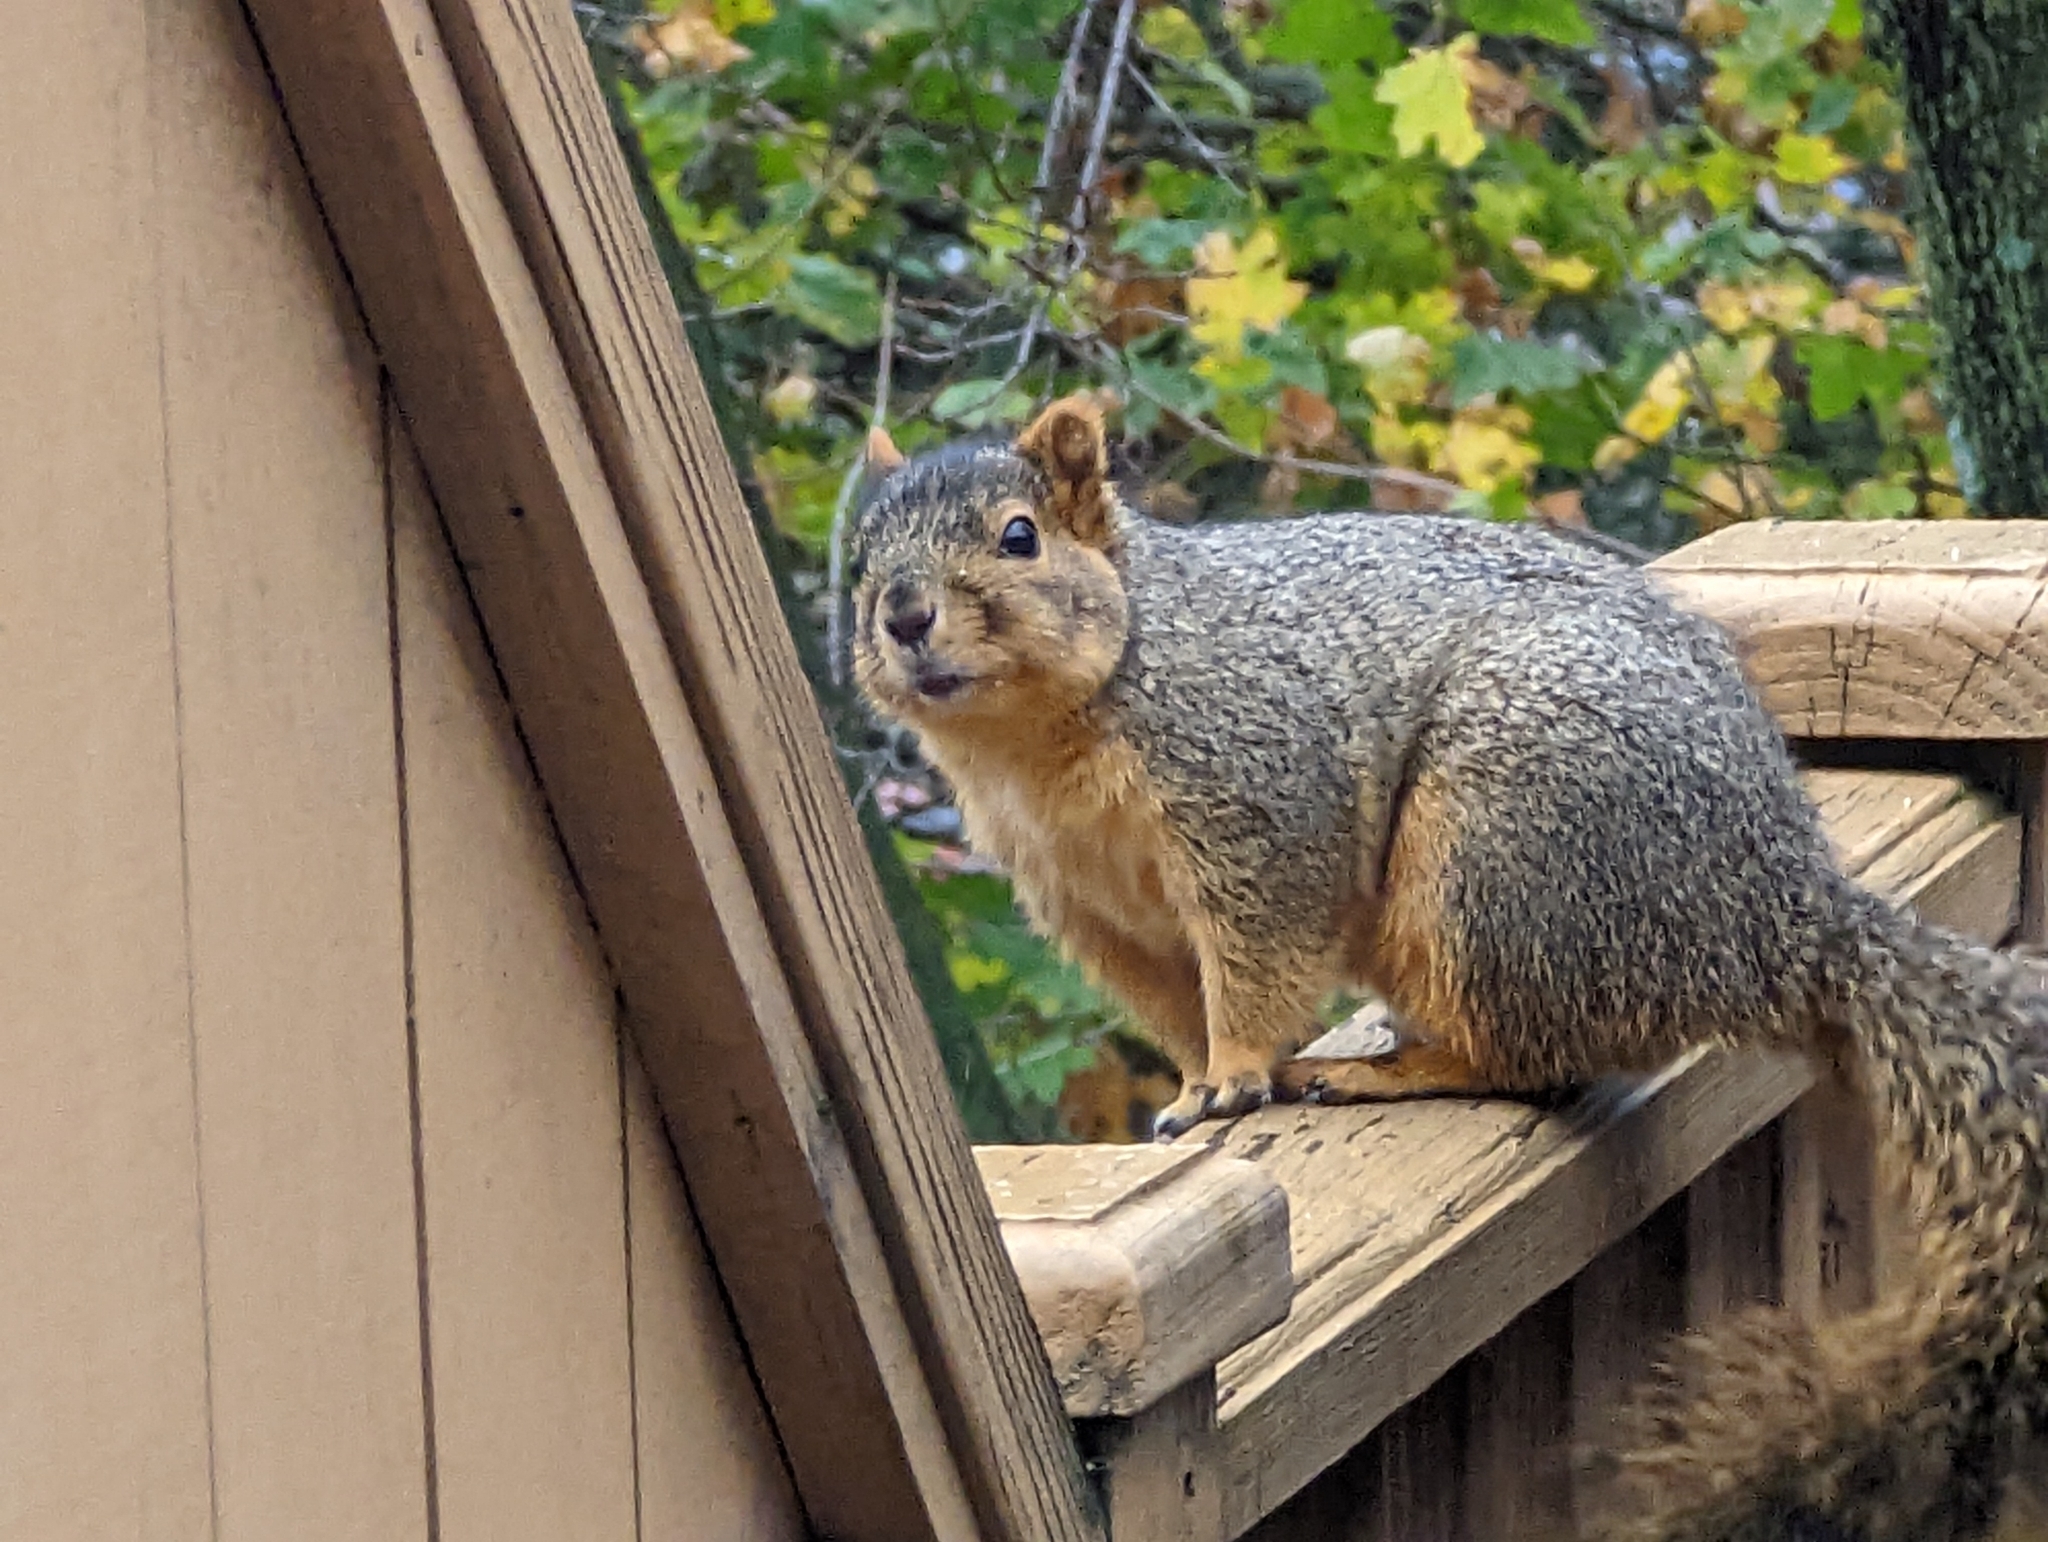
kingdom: Animalia
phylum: Chordata
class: Mammalia
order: Rodentia
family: Sciuridae
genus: Sciurus
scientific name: Sciurus niger
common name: Fox squirrel
